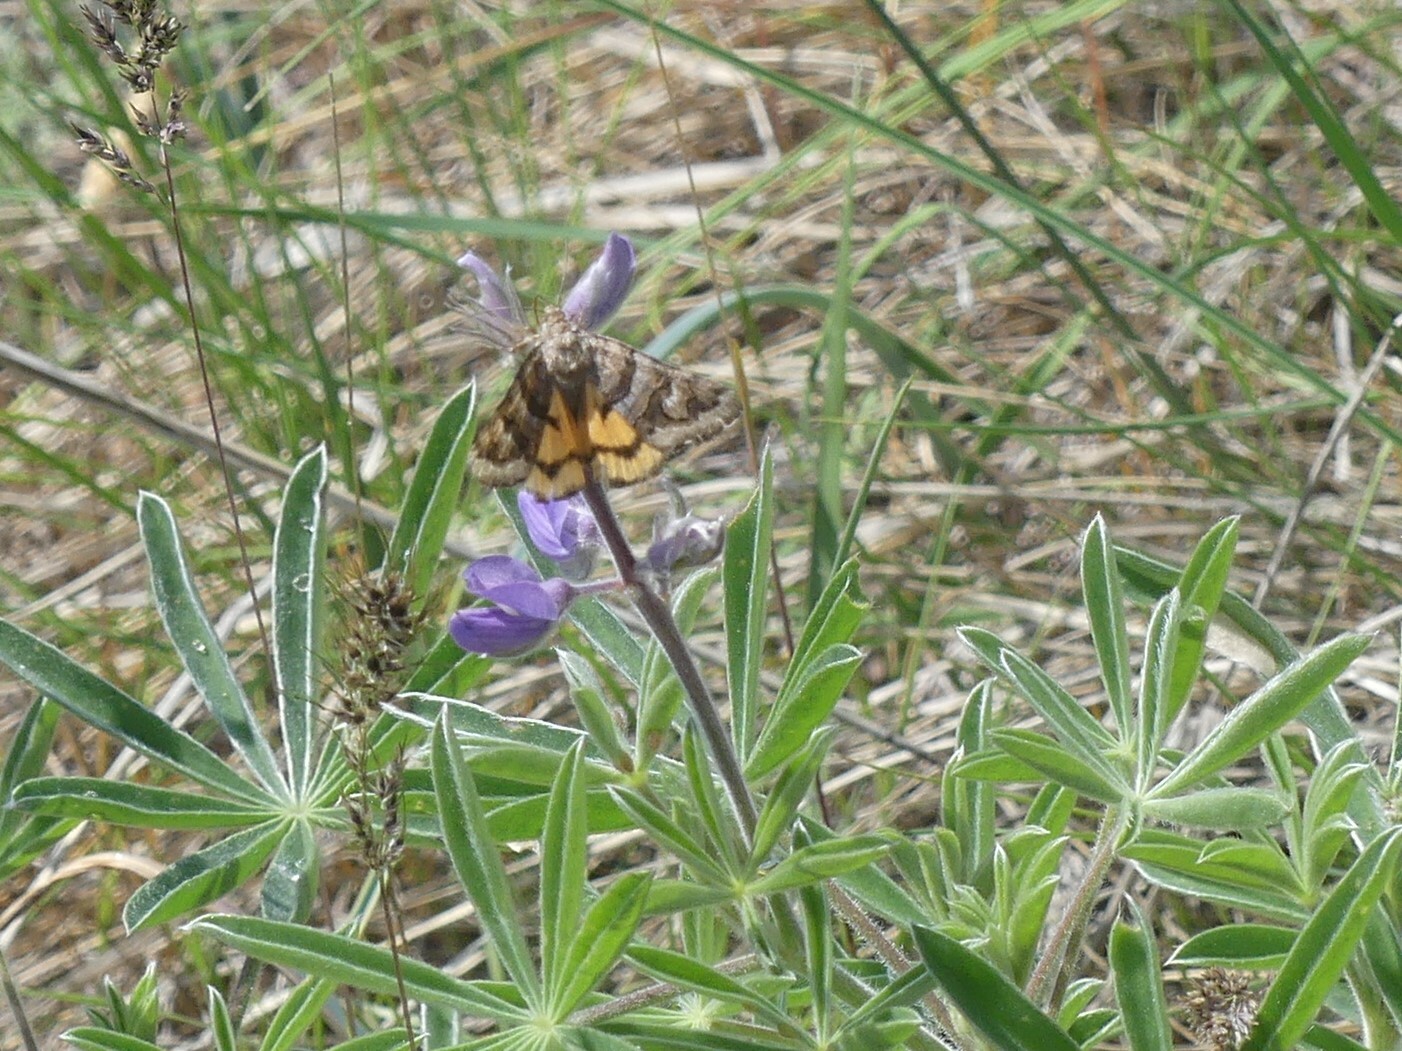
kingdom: Animalia
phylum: Arthropoda
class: Insecta
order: Lepidoptera
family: Erebidae
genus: Drasteria
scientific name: Drasteria howlandii
